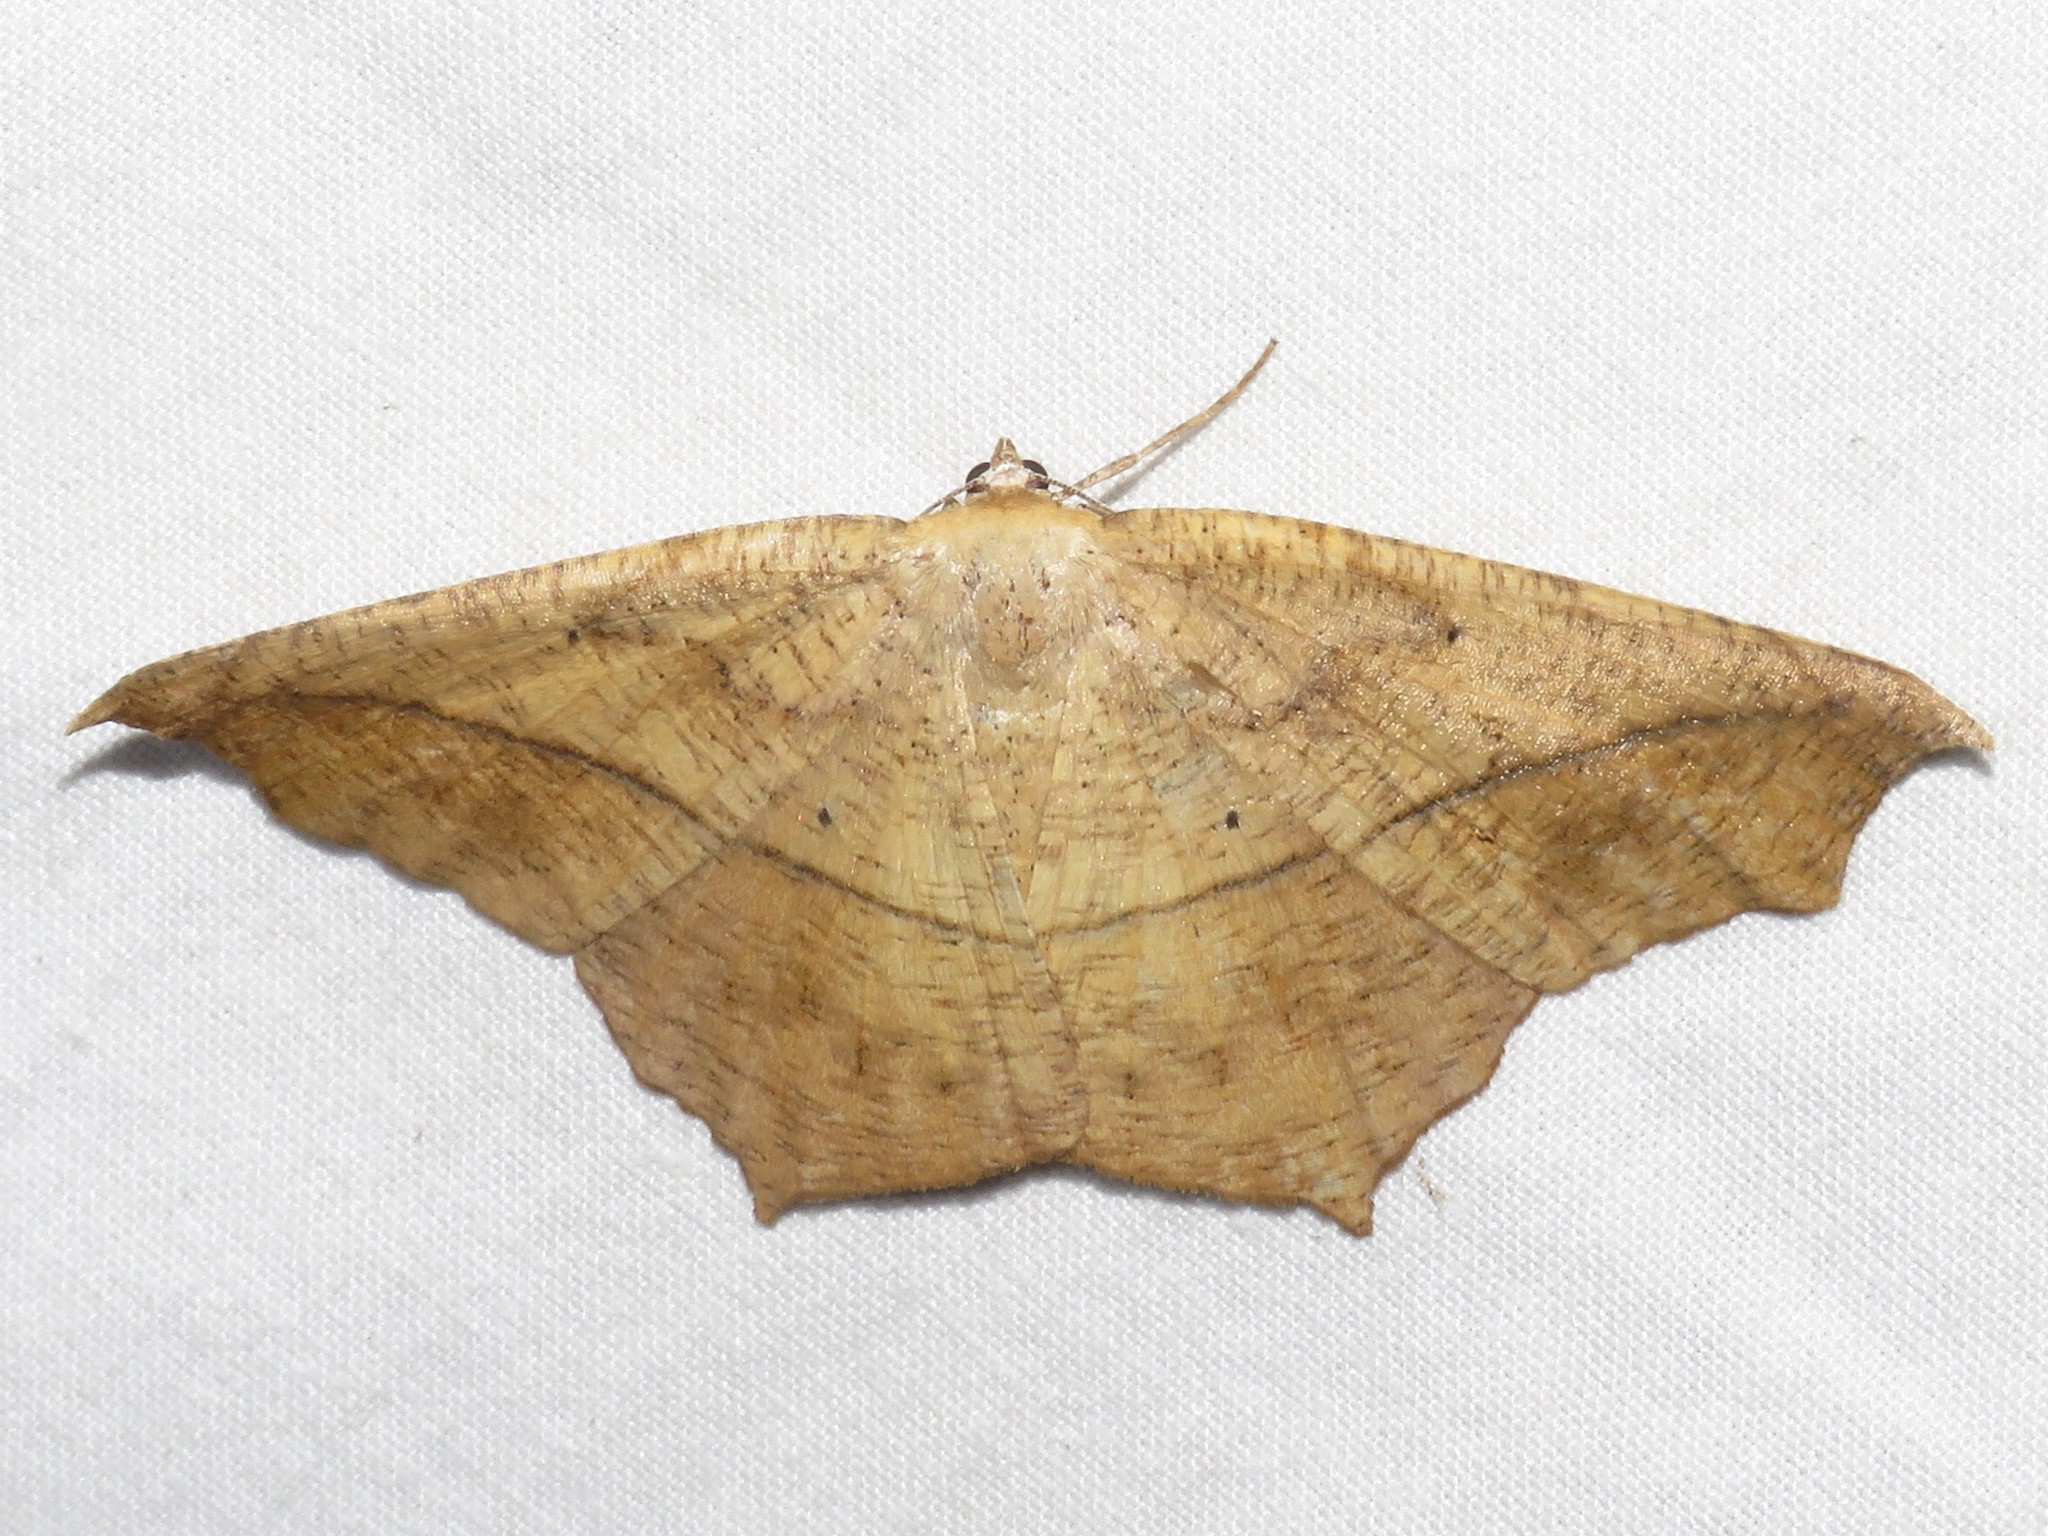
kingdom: Animalia
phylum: Arthropoda
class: Insecta
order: Lepidoptera
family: Geometridae
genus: Prochoerodes
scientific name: Prochoerodes lineola
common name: Large maple spanworm
